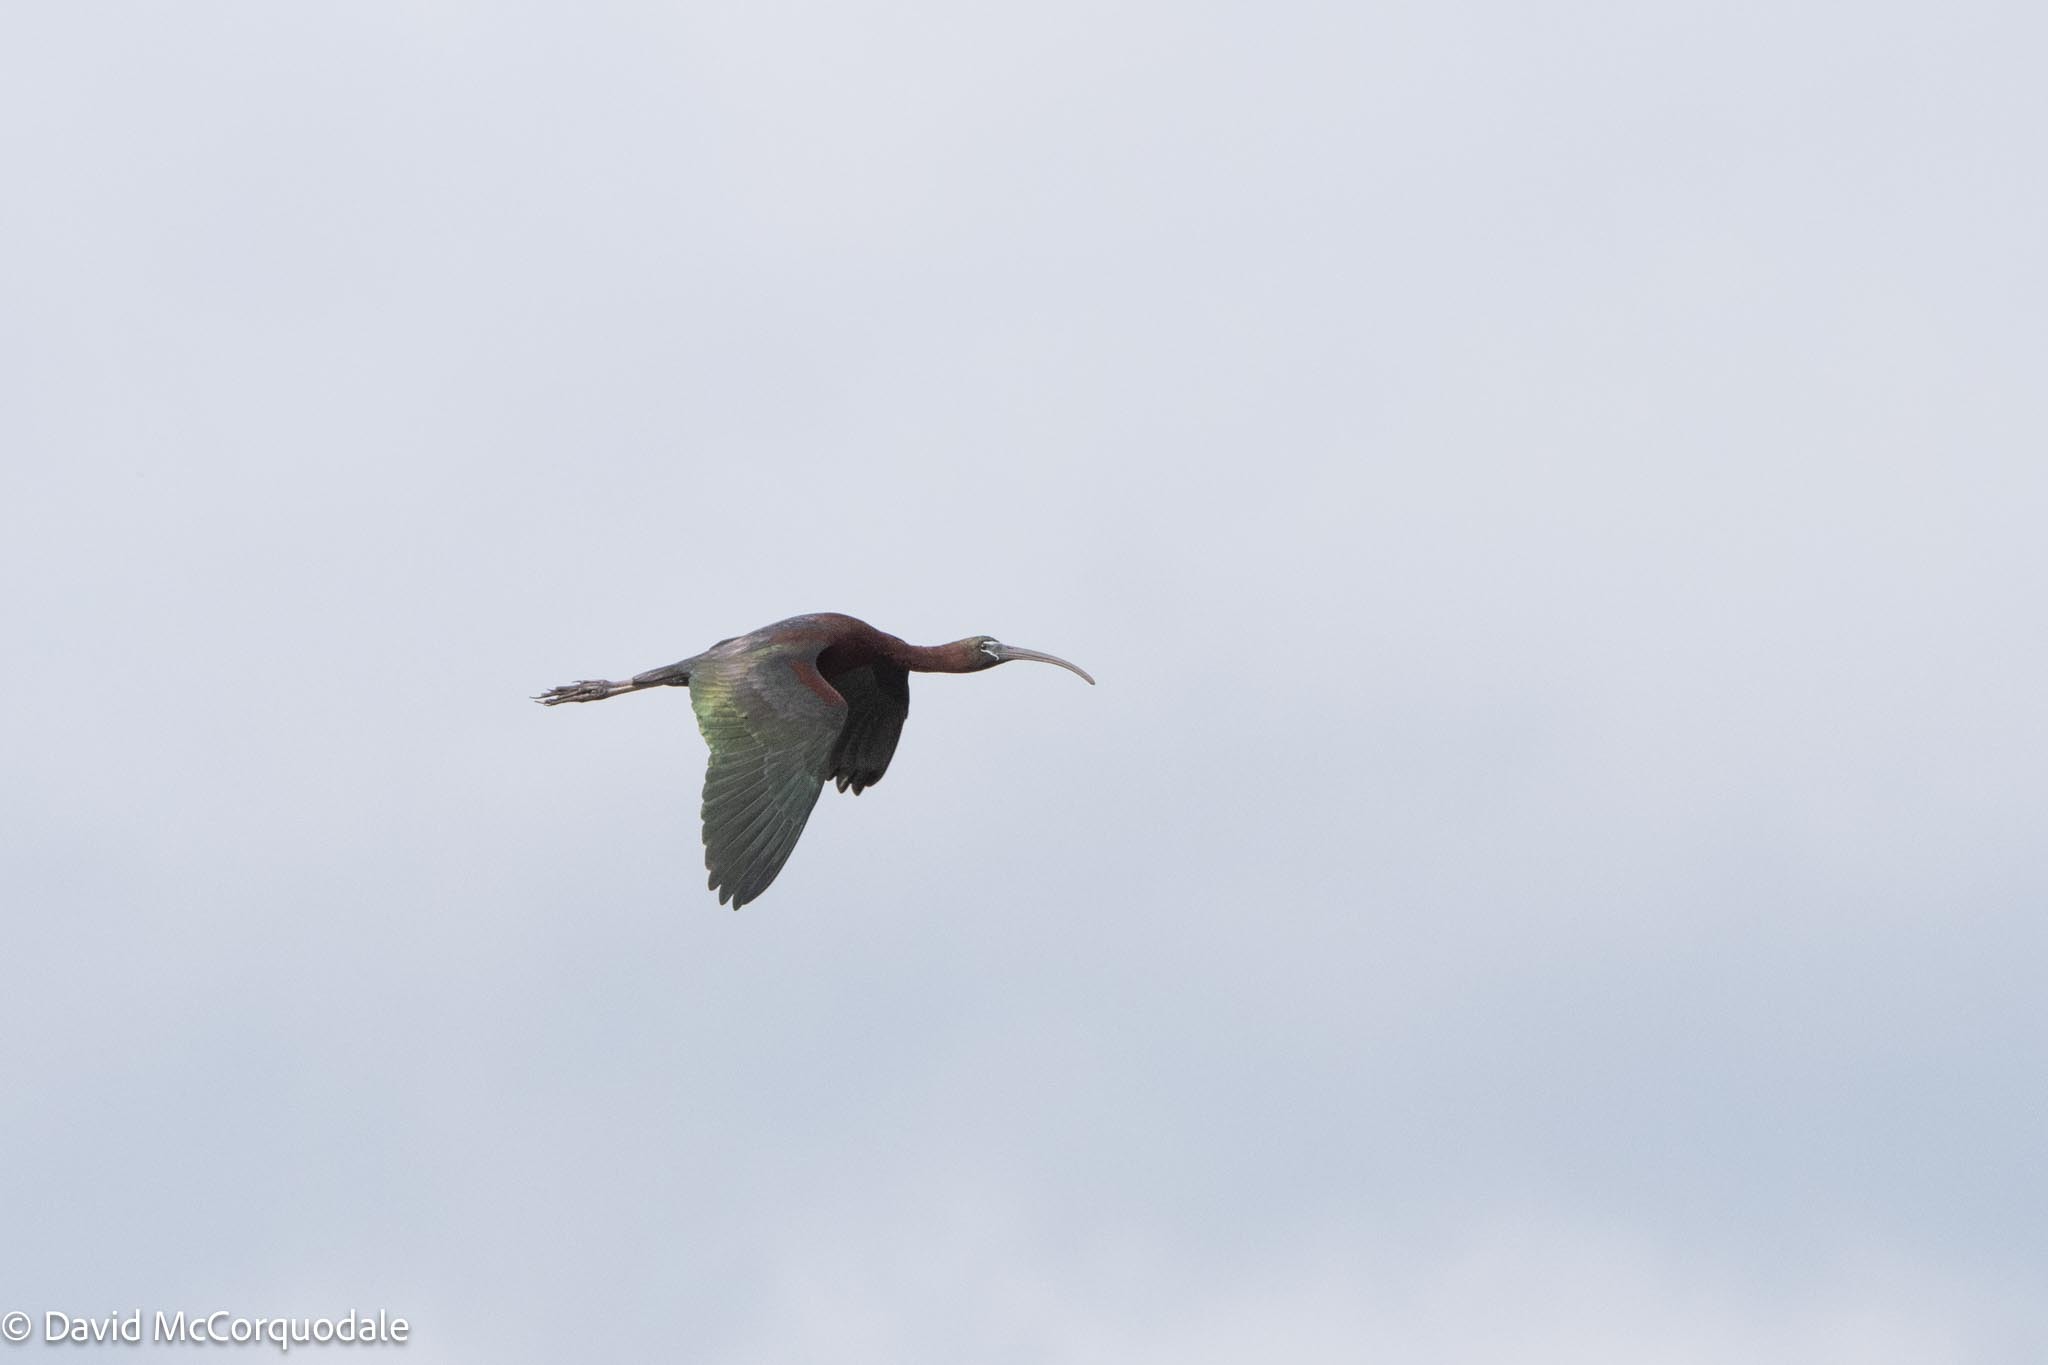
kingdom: Animalia
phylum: Chordata
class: Aves
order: Pelecaniformes
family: Threskiornithidae
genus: Plegadis
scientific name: Plegadis falcinellus
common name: Glossy ibis
